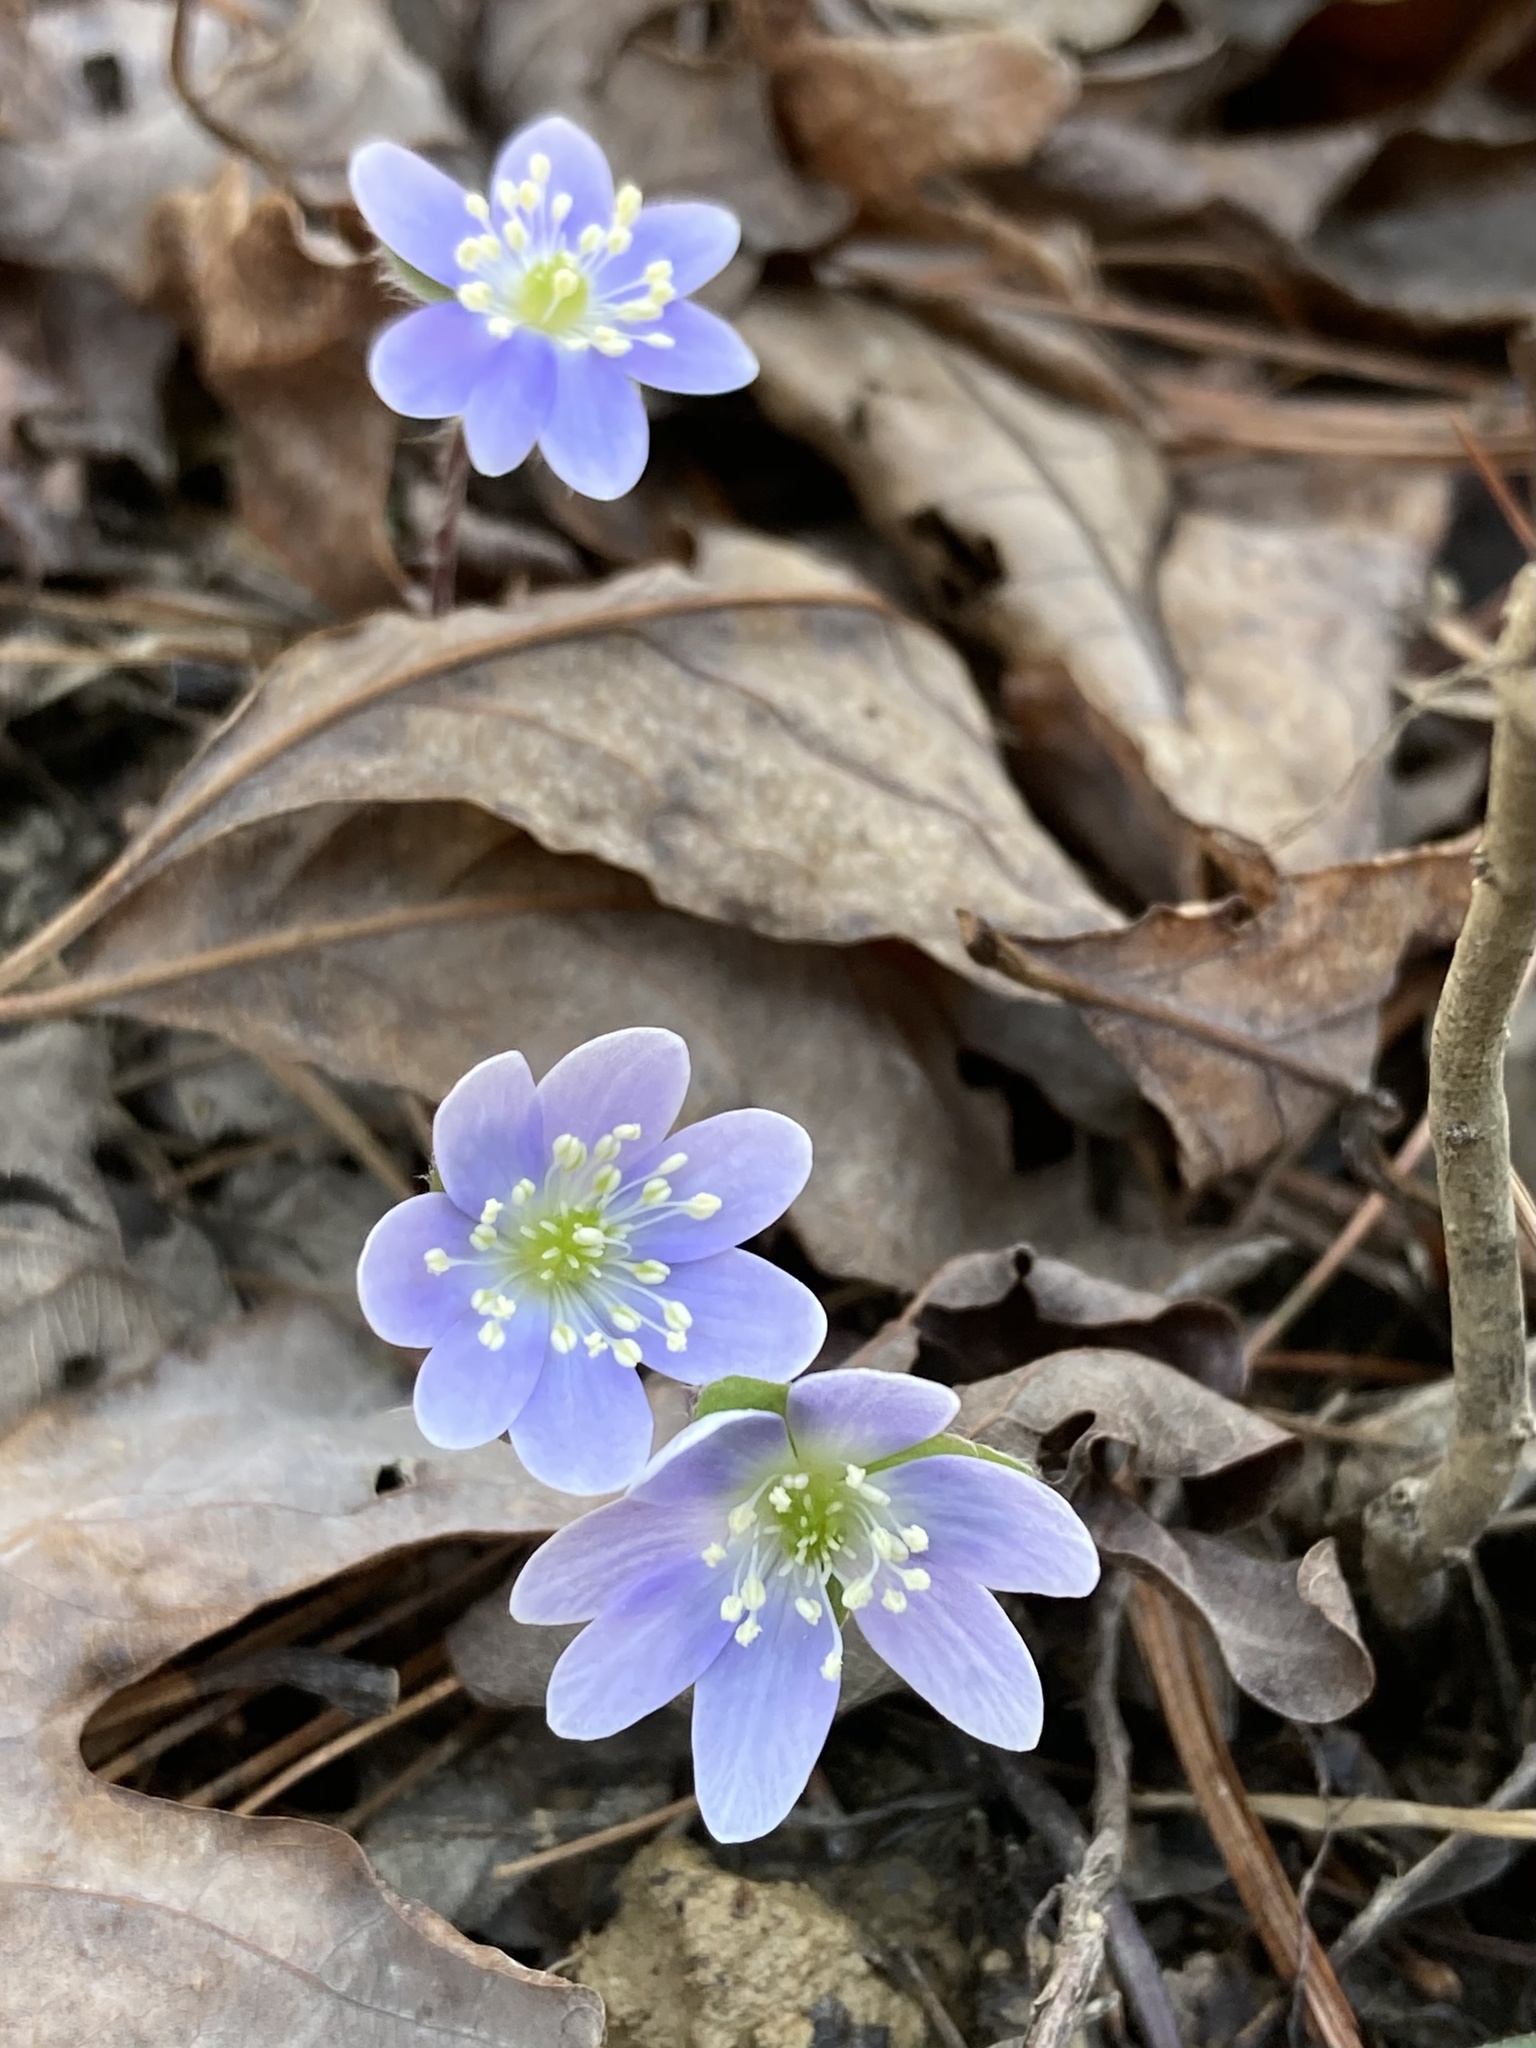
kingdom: Plantae
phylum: Tracheophyta
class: Magnoliopsida
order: Ranunculales
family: Ranunculaceae
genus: Hepatica
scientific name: Hepatica americana
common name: American hepatica
